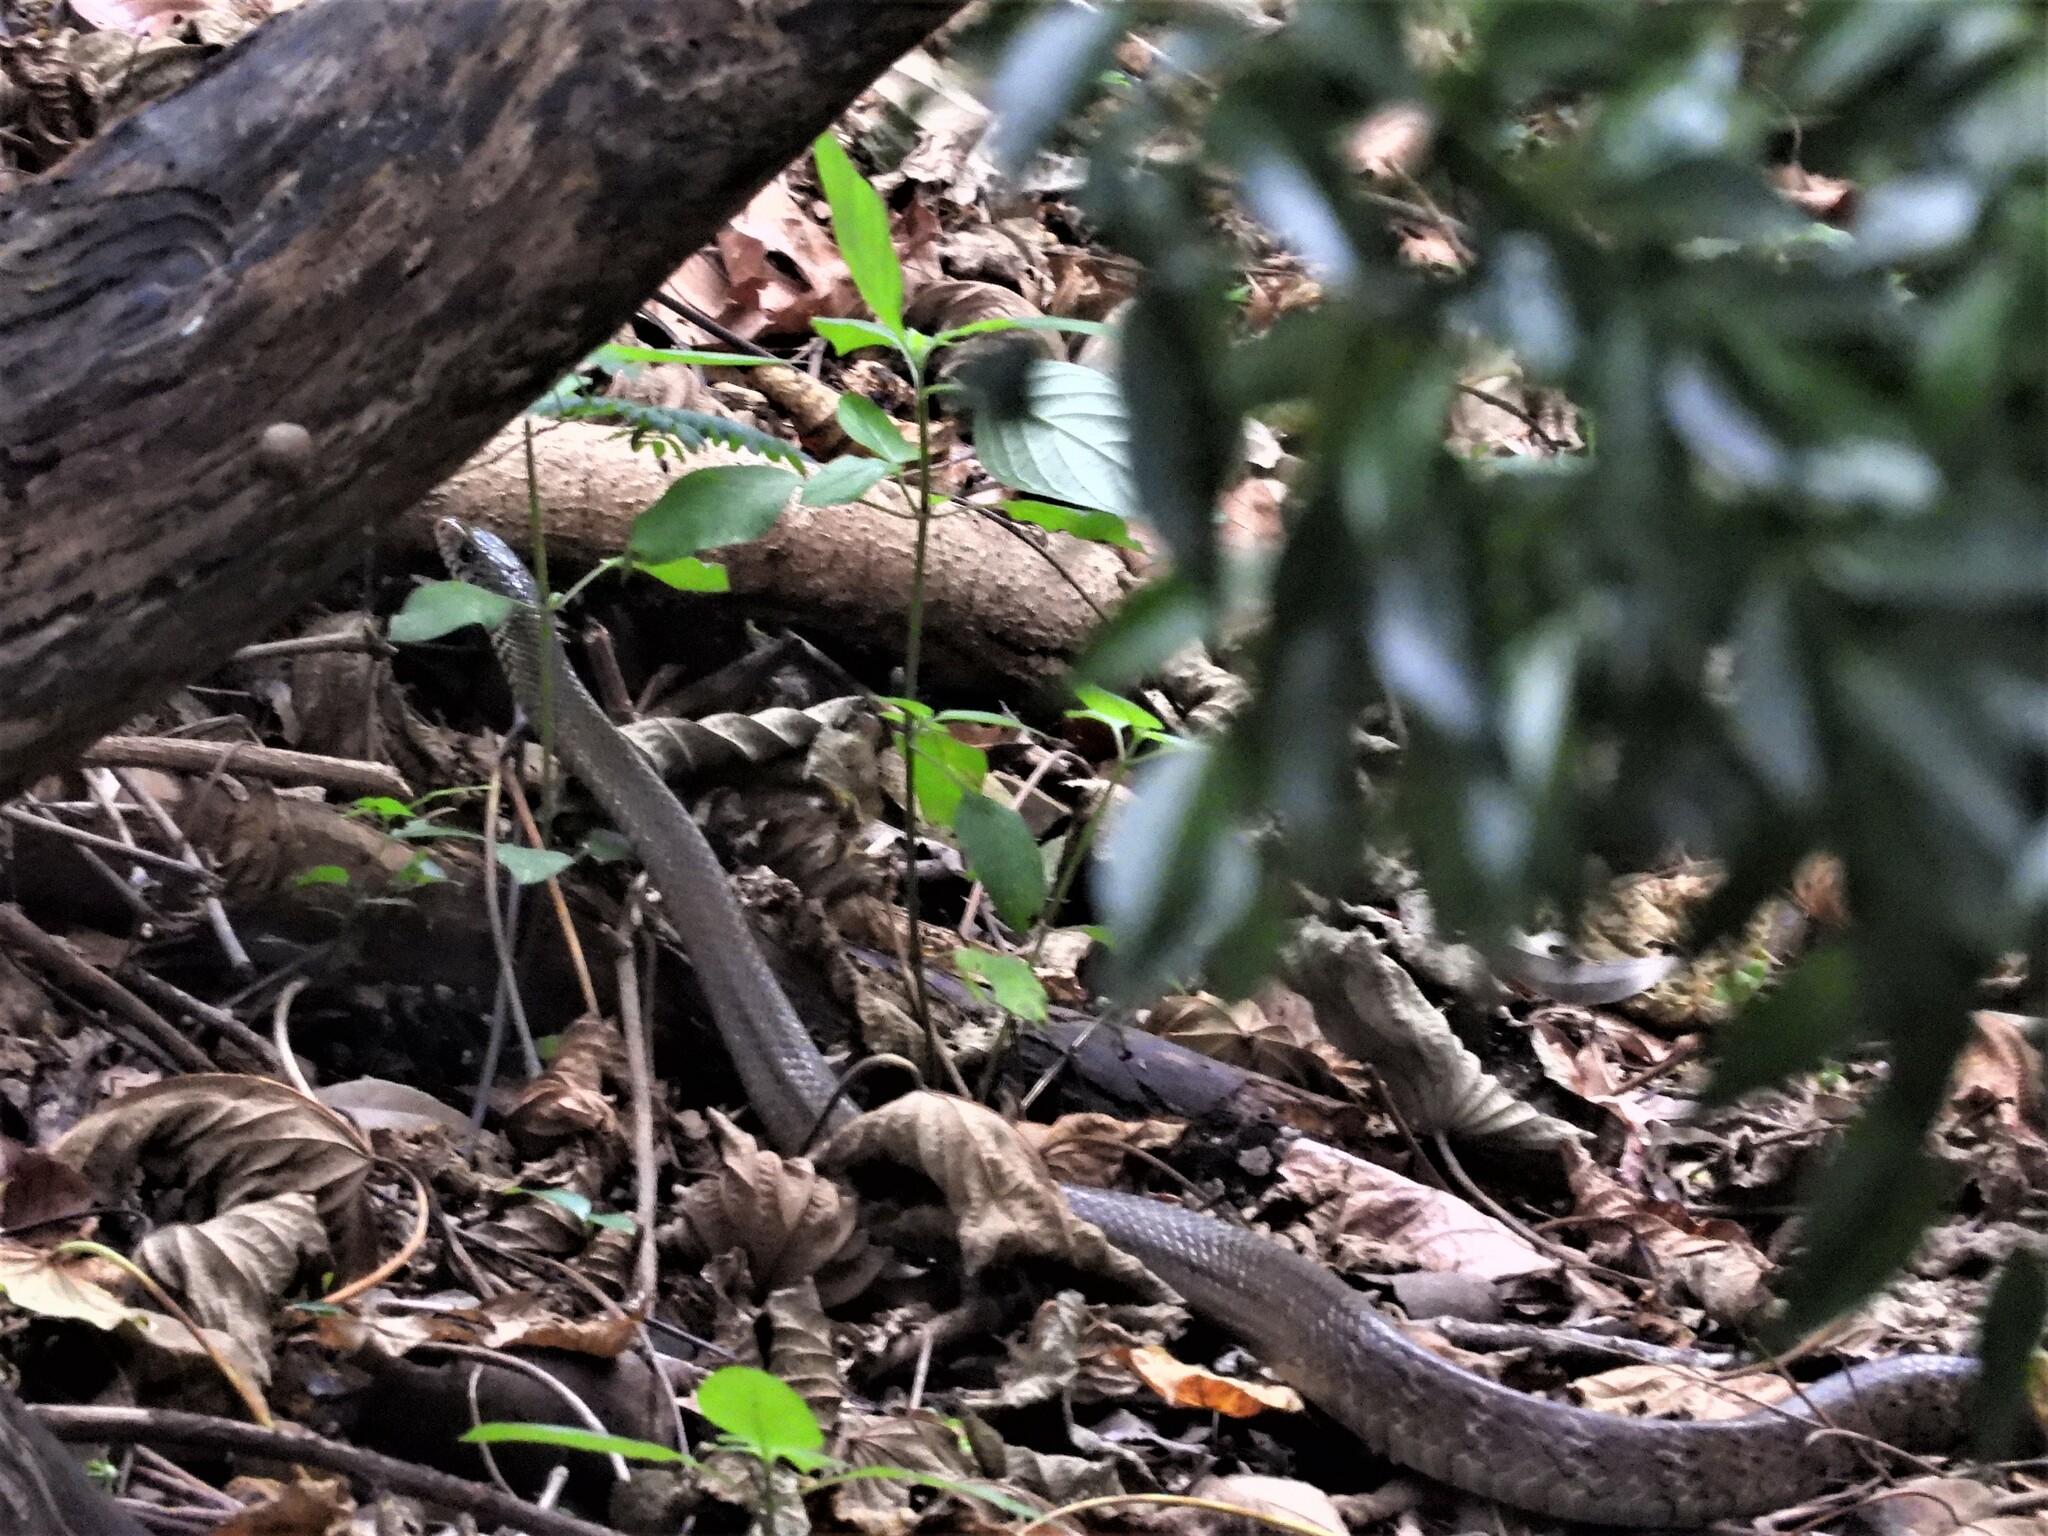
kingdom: Animalia
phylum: Chordata
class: Squamata
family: Colubridae
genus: Ptyas
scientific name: Ptyas mucosa
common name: Oriental ratsnake
